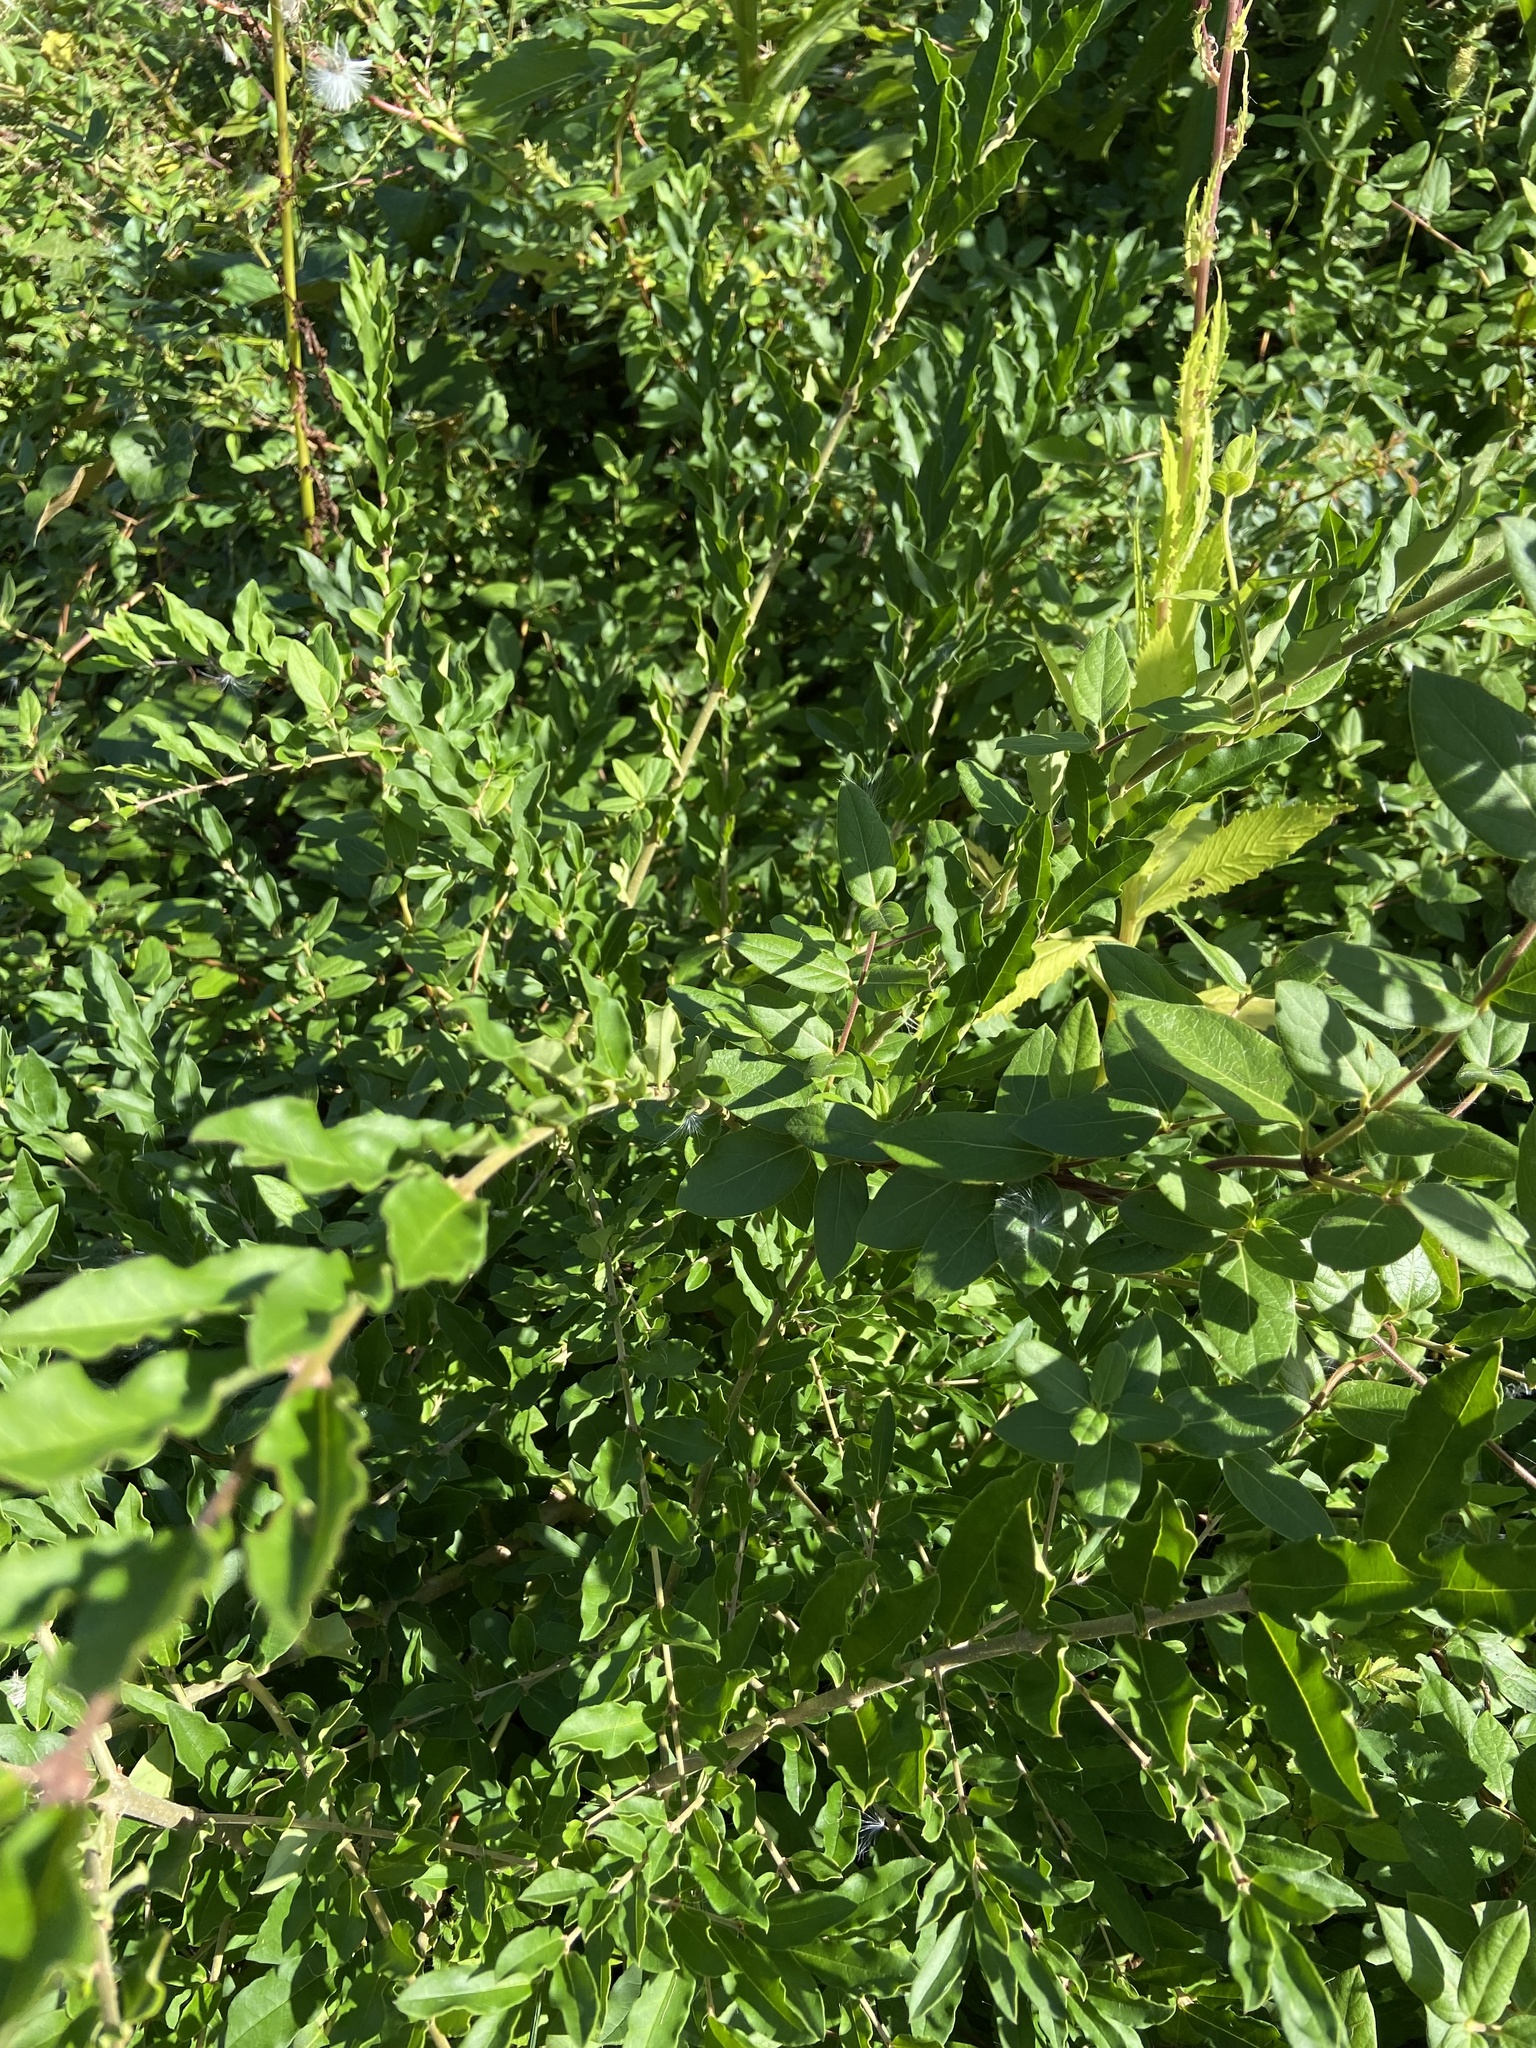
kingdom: Plantae
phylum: Tracheophyta
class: Magnoliopsida
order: Lamiales
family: Oleaceae
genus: Ligustrum
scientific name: Ligustrum ovalifolium
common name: California privet
